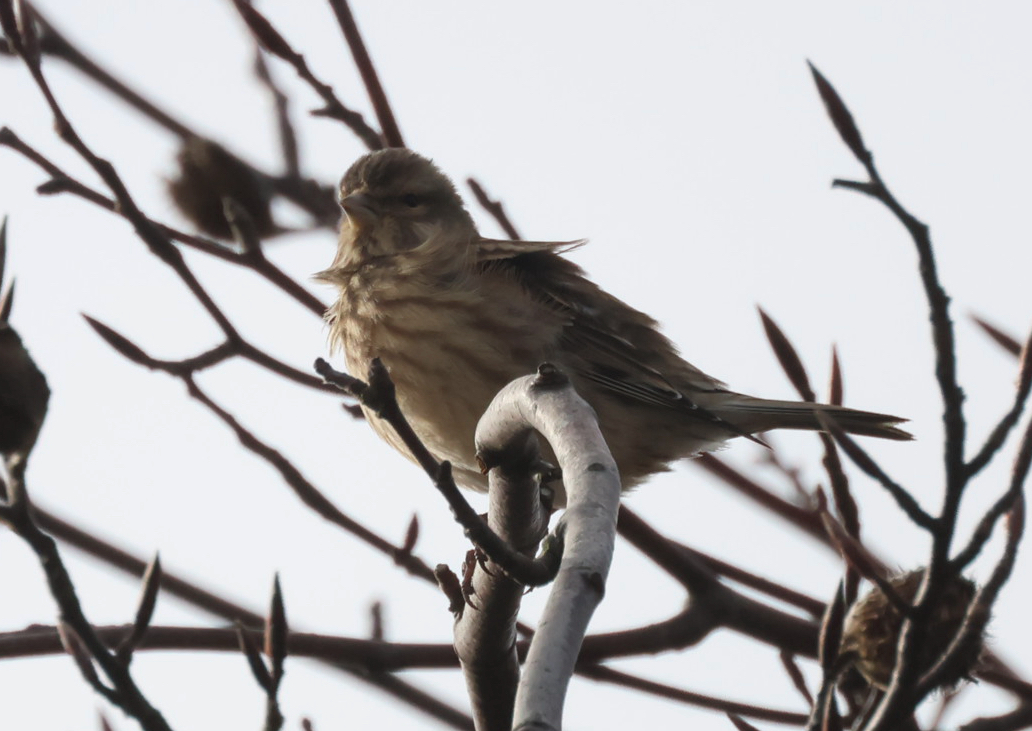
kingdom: Animalia
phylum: Chordata
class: Aves
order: Passeriformes
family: Fringillidae
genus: Linaria
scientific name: Linaria cannabina
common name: Common linnet
